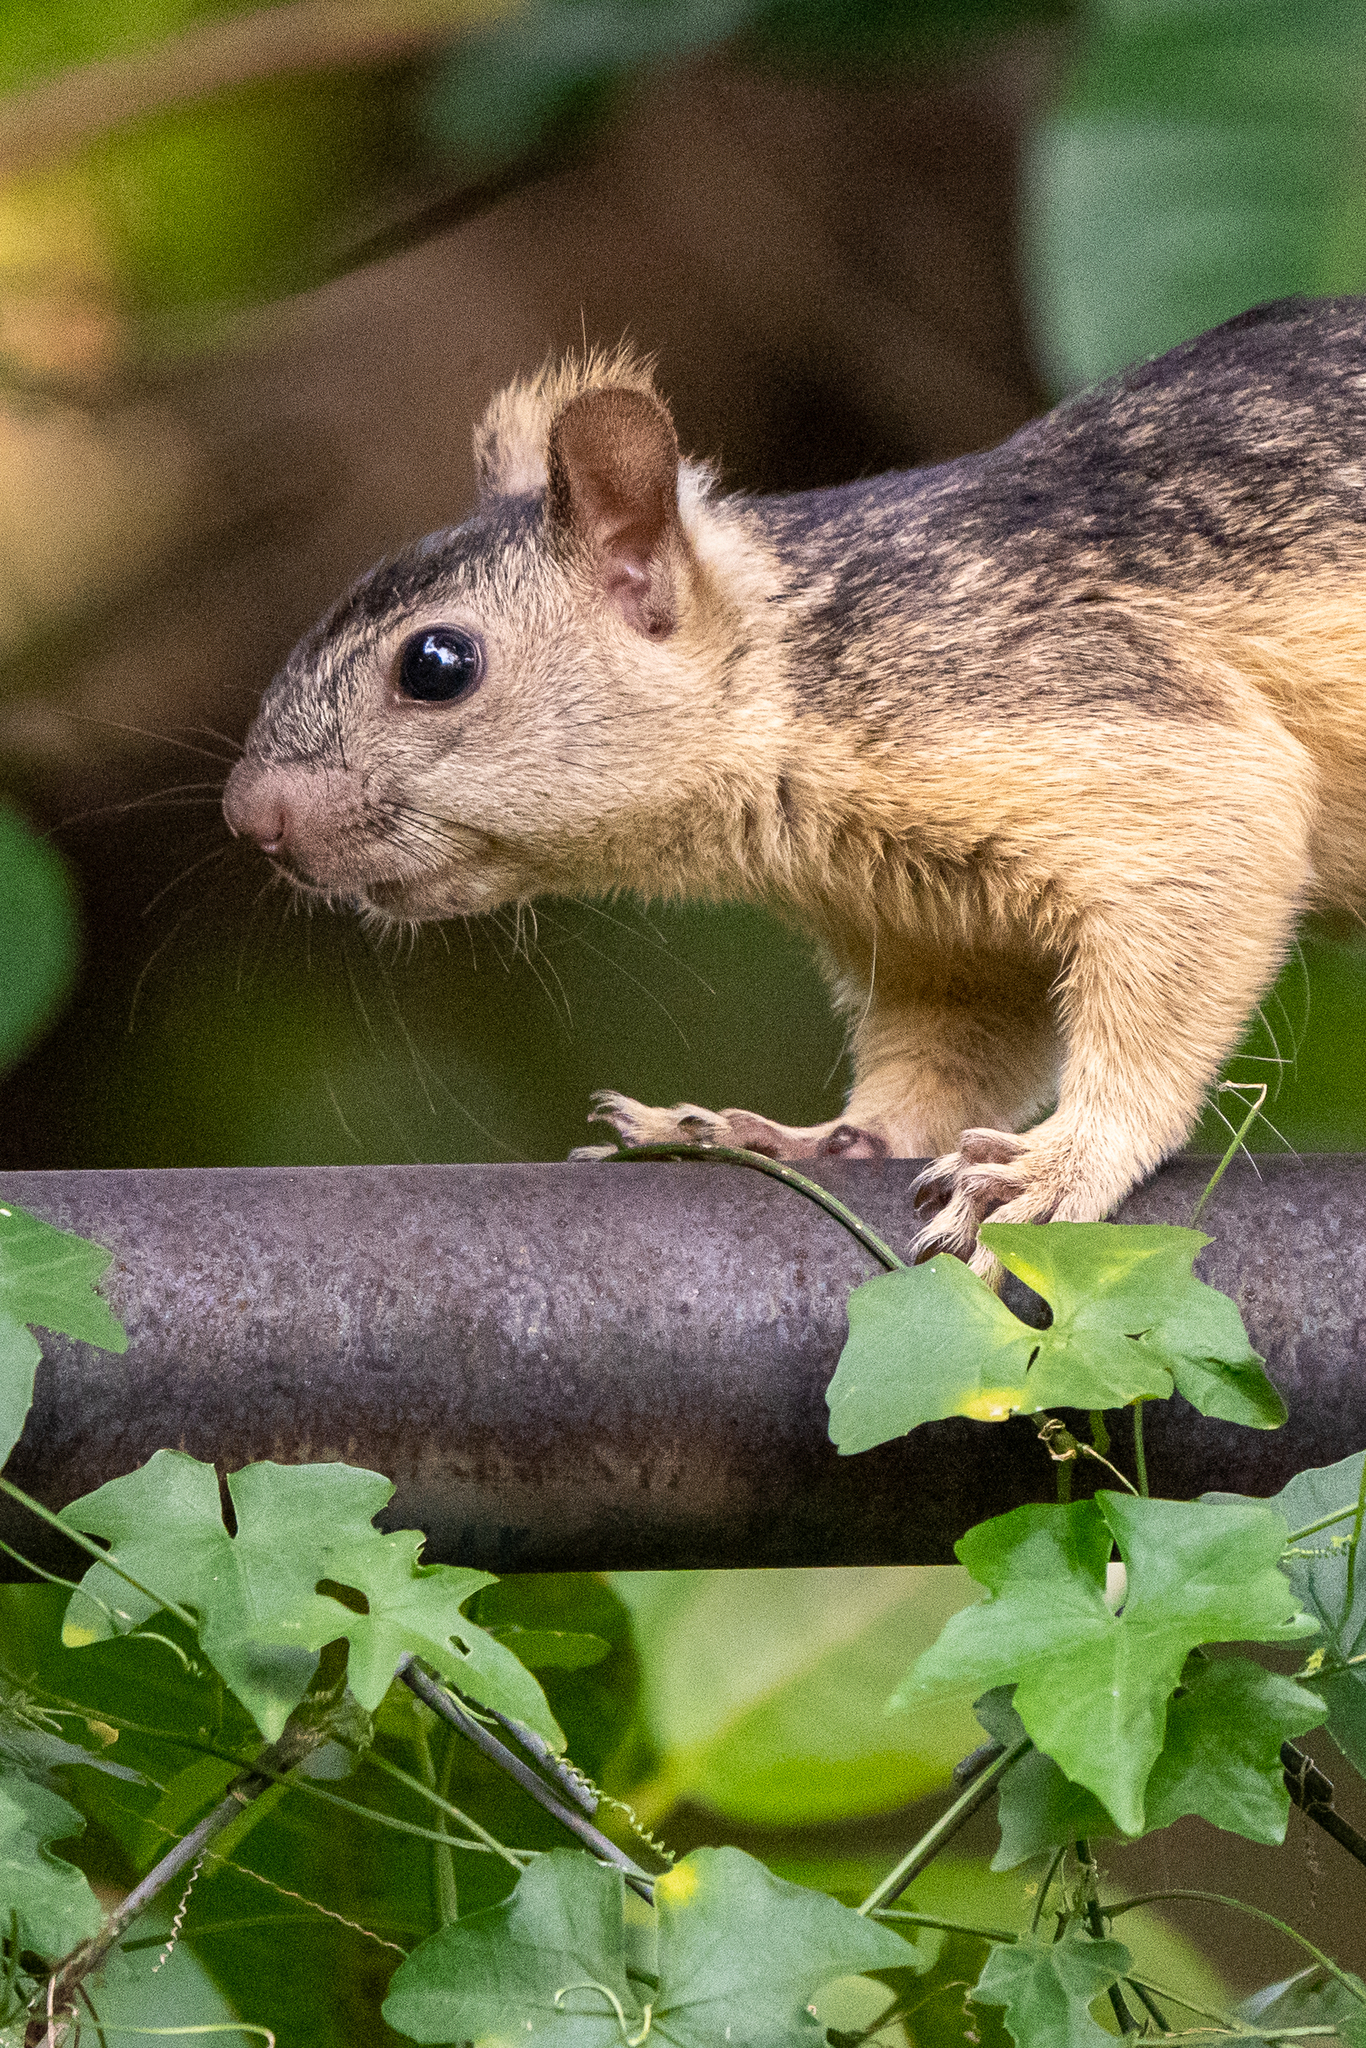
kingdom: Animalia
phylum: Chordata
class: Mammalia
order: Rodentia
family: Sciuridae
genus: Sciurus
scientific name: Sciurus variegatoides
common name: Variegated squirrel
